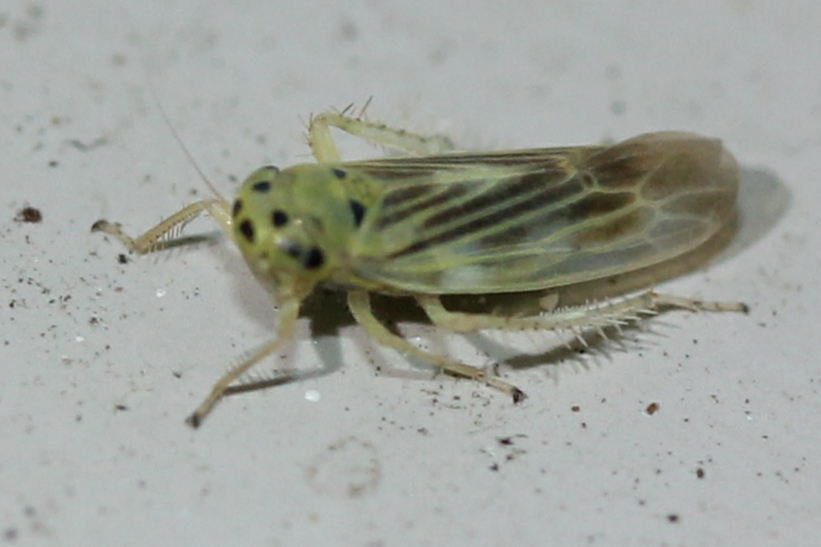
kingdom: Animalia
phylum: Arthropoda
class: Insecta
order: Hemiptera
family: Cicadellidae
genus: Macrosteles
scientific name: Macrosteles parvidens
